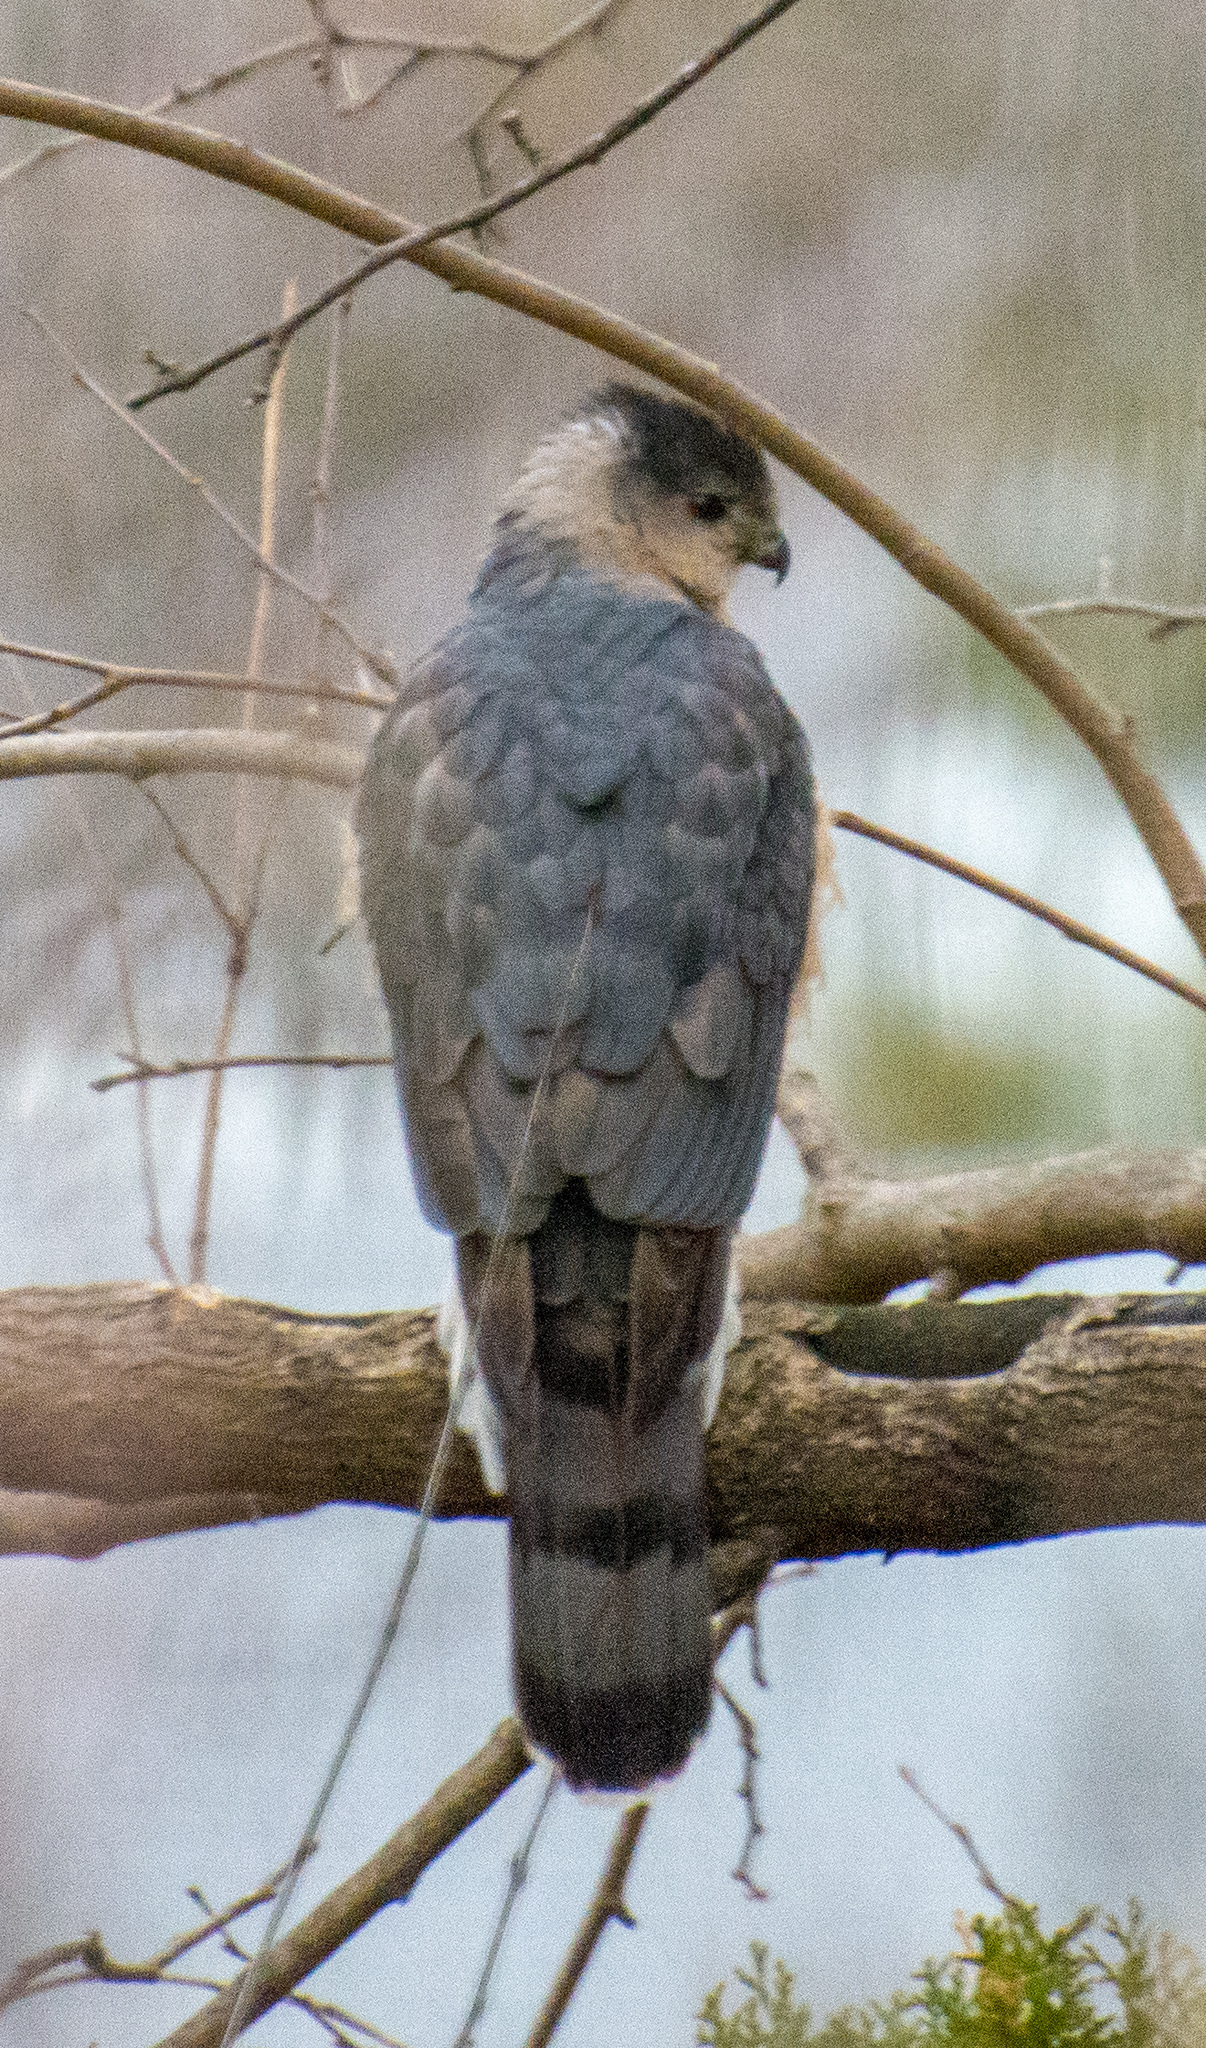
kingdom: Animalia
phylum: Chordata
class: Aves
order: Accipitriformes
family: Accipitridae
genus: Accipiter
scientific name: Accipiter cooperii
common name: Cooper's hawk
